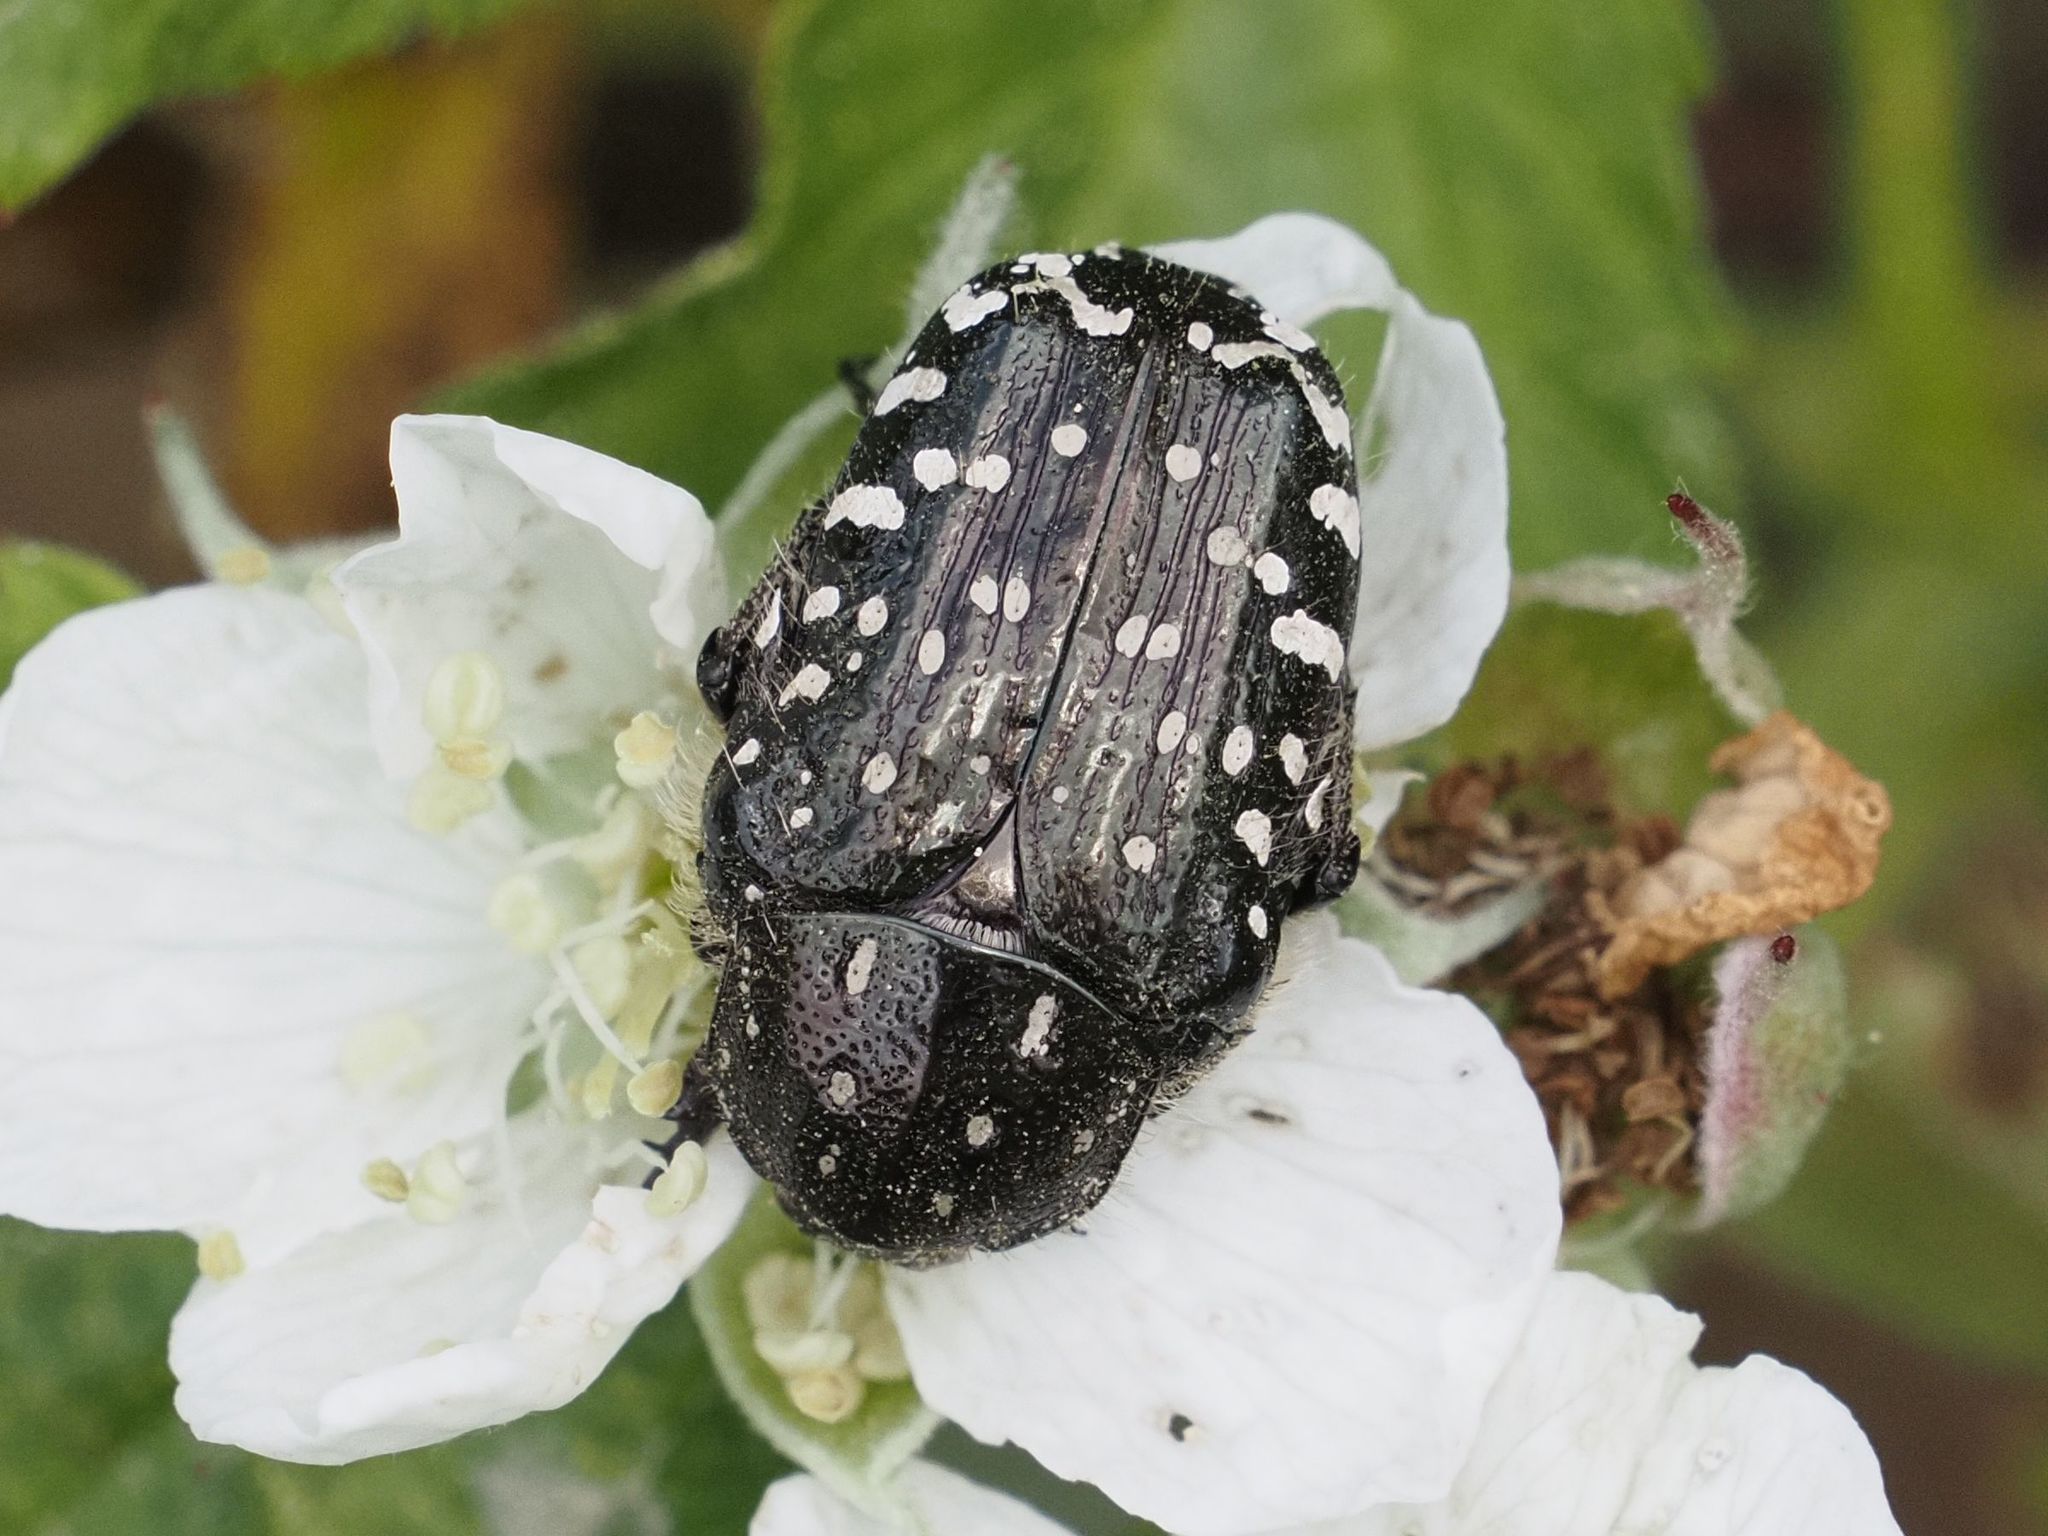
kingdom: Animalia
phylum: Arthropoda
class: Insecta
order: Coleoptera
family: Scarabaeidae
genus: Oxythyrea
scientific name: Oxythyrea funesta
